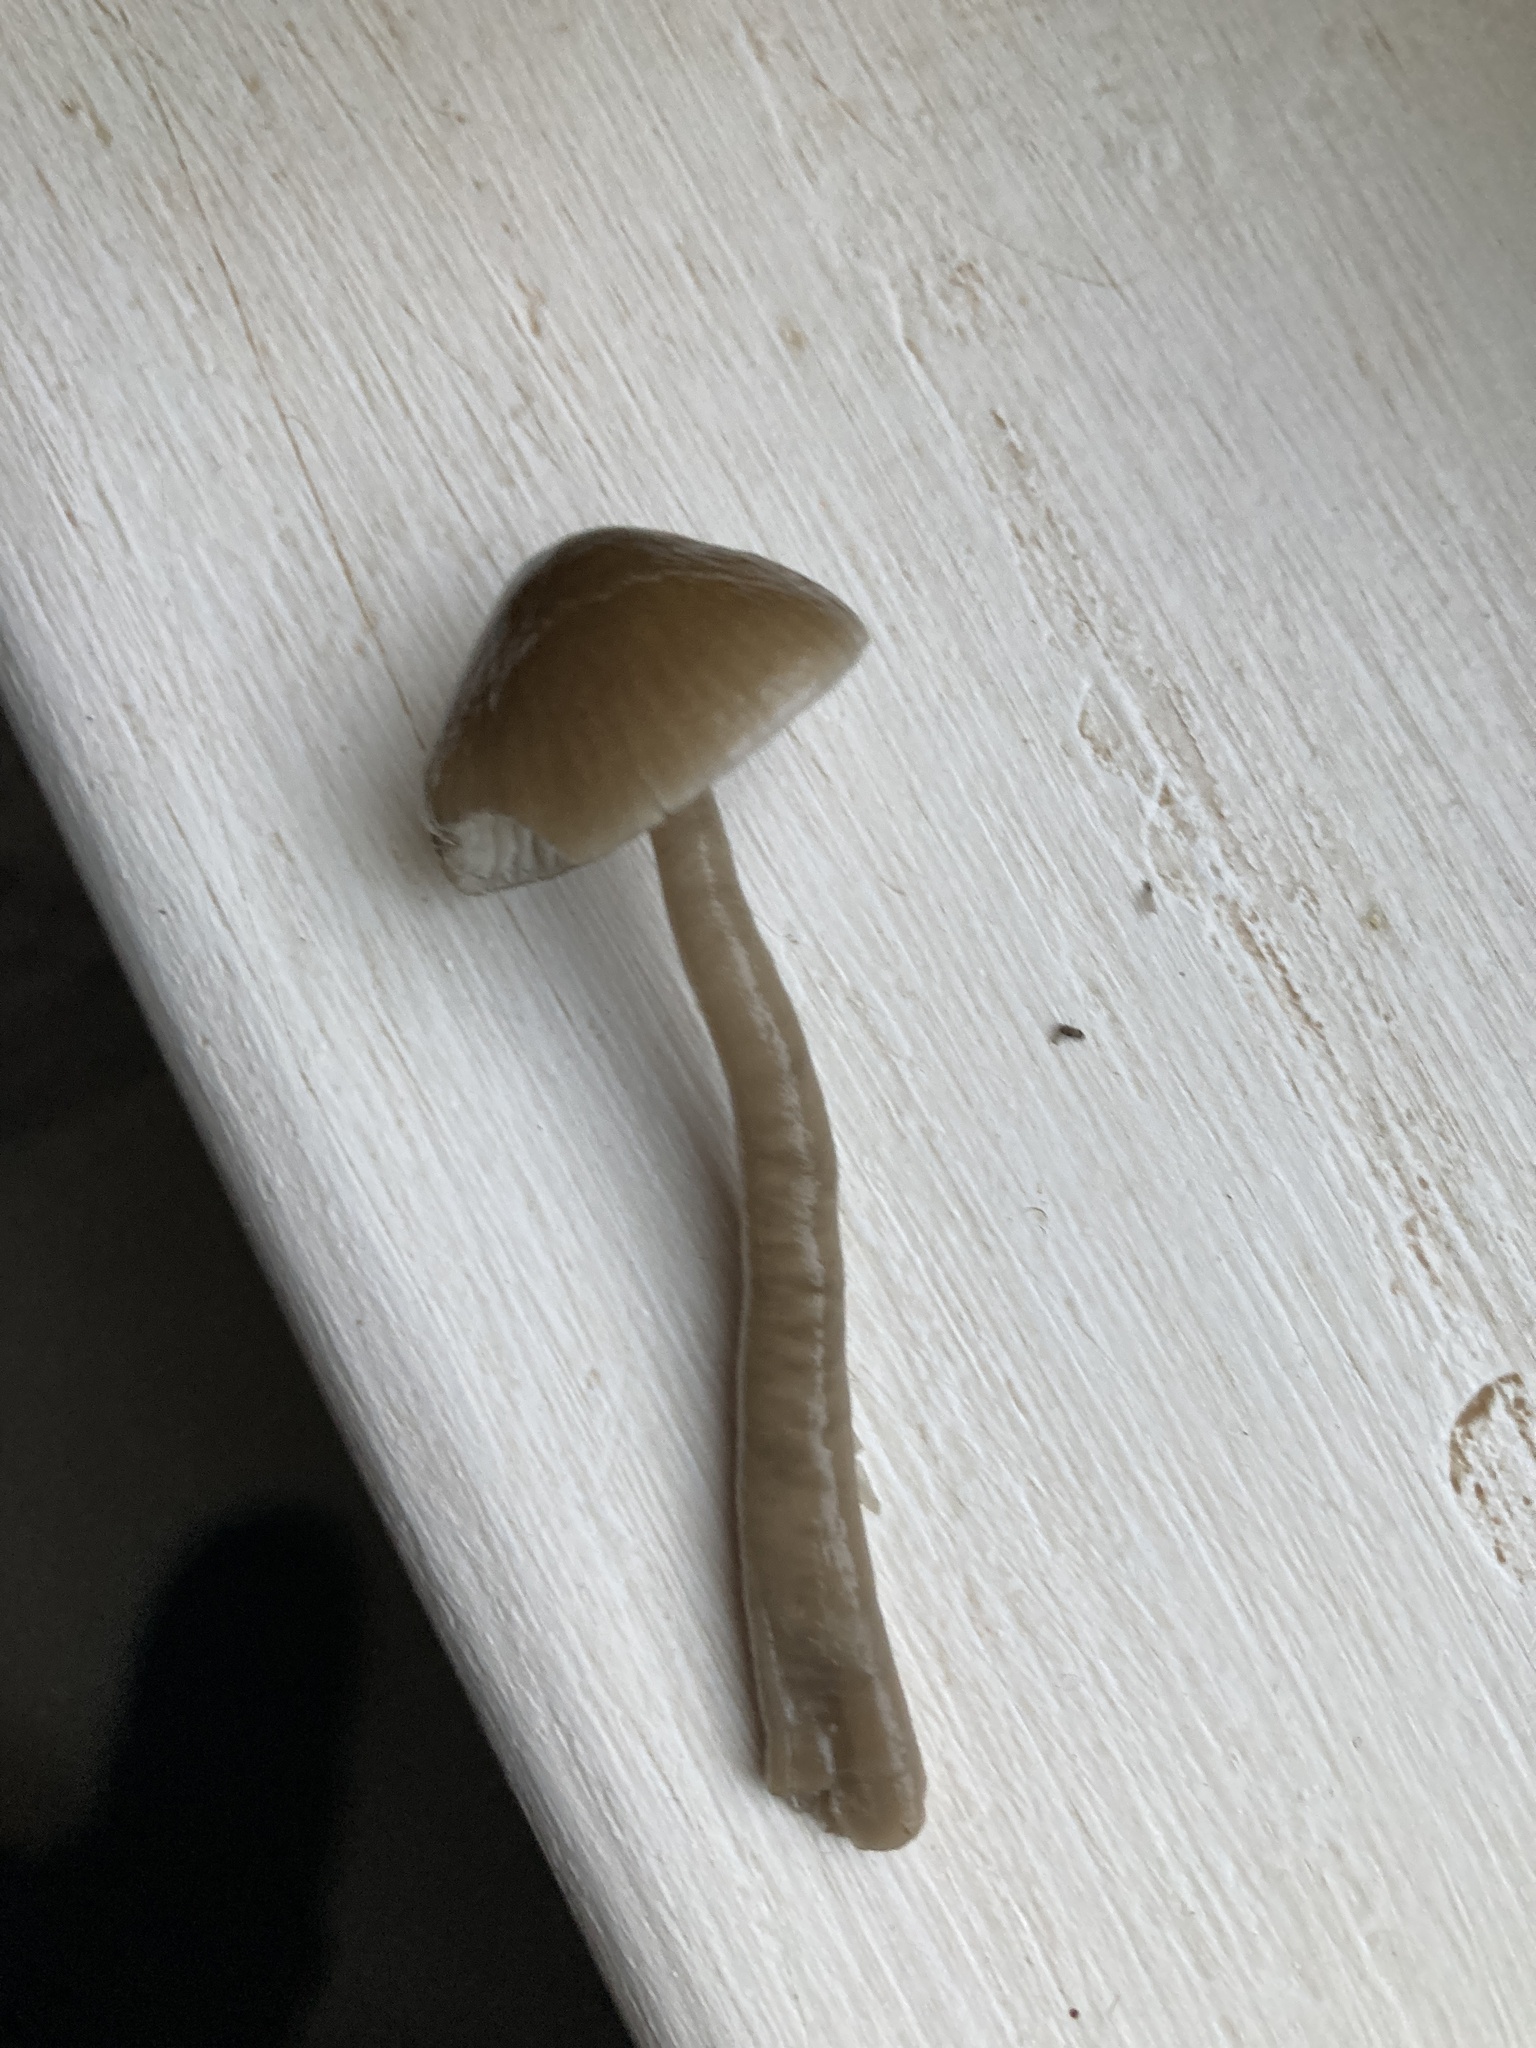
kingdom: Fungi
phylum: Basidiomycota
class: Agaricomycetes
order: Agaricales
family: Hygrophoraceae
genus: Gliophorus
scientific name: Gliophorus irrigatus
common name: Slimy waxcap
